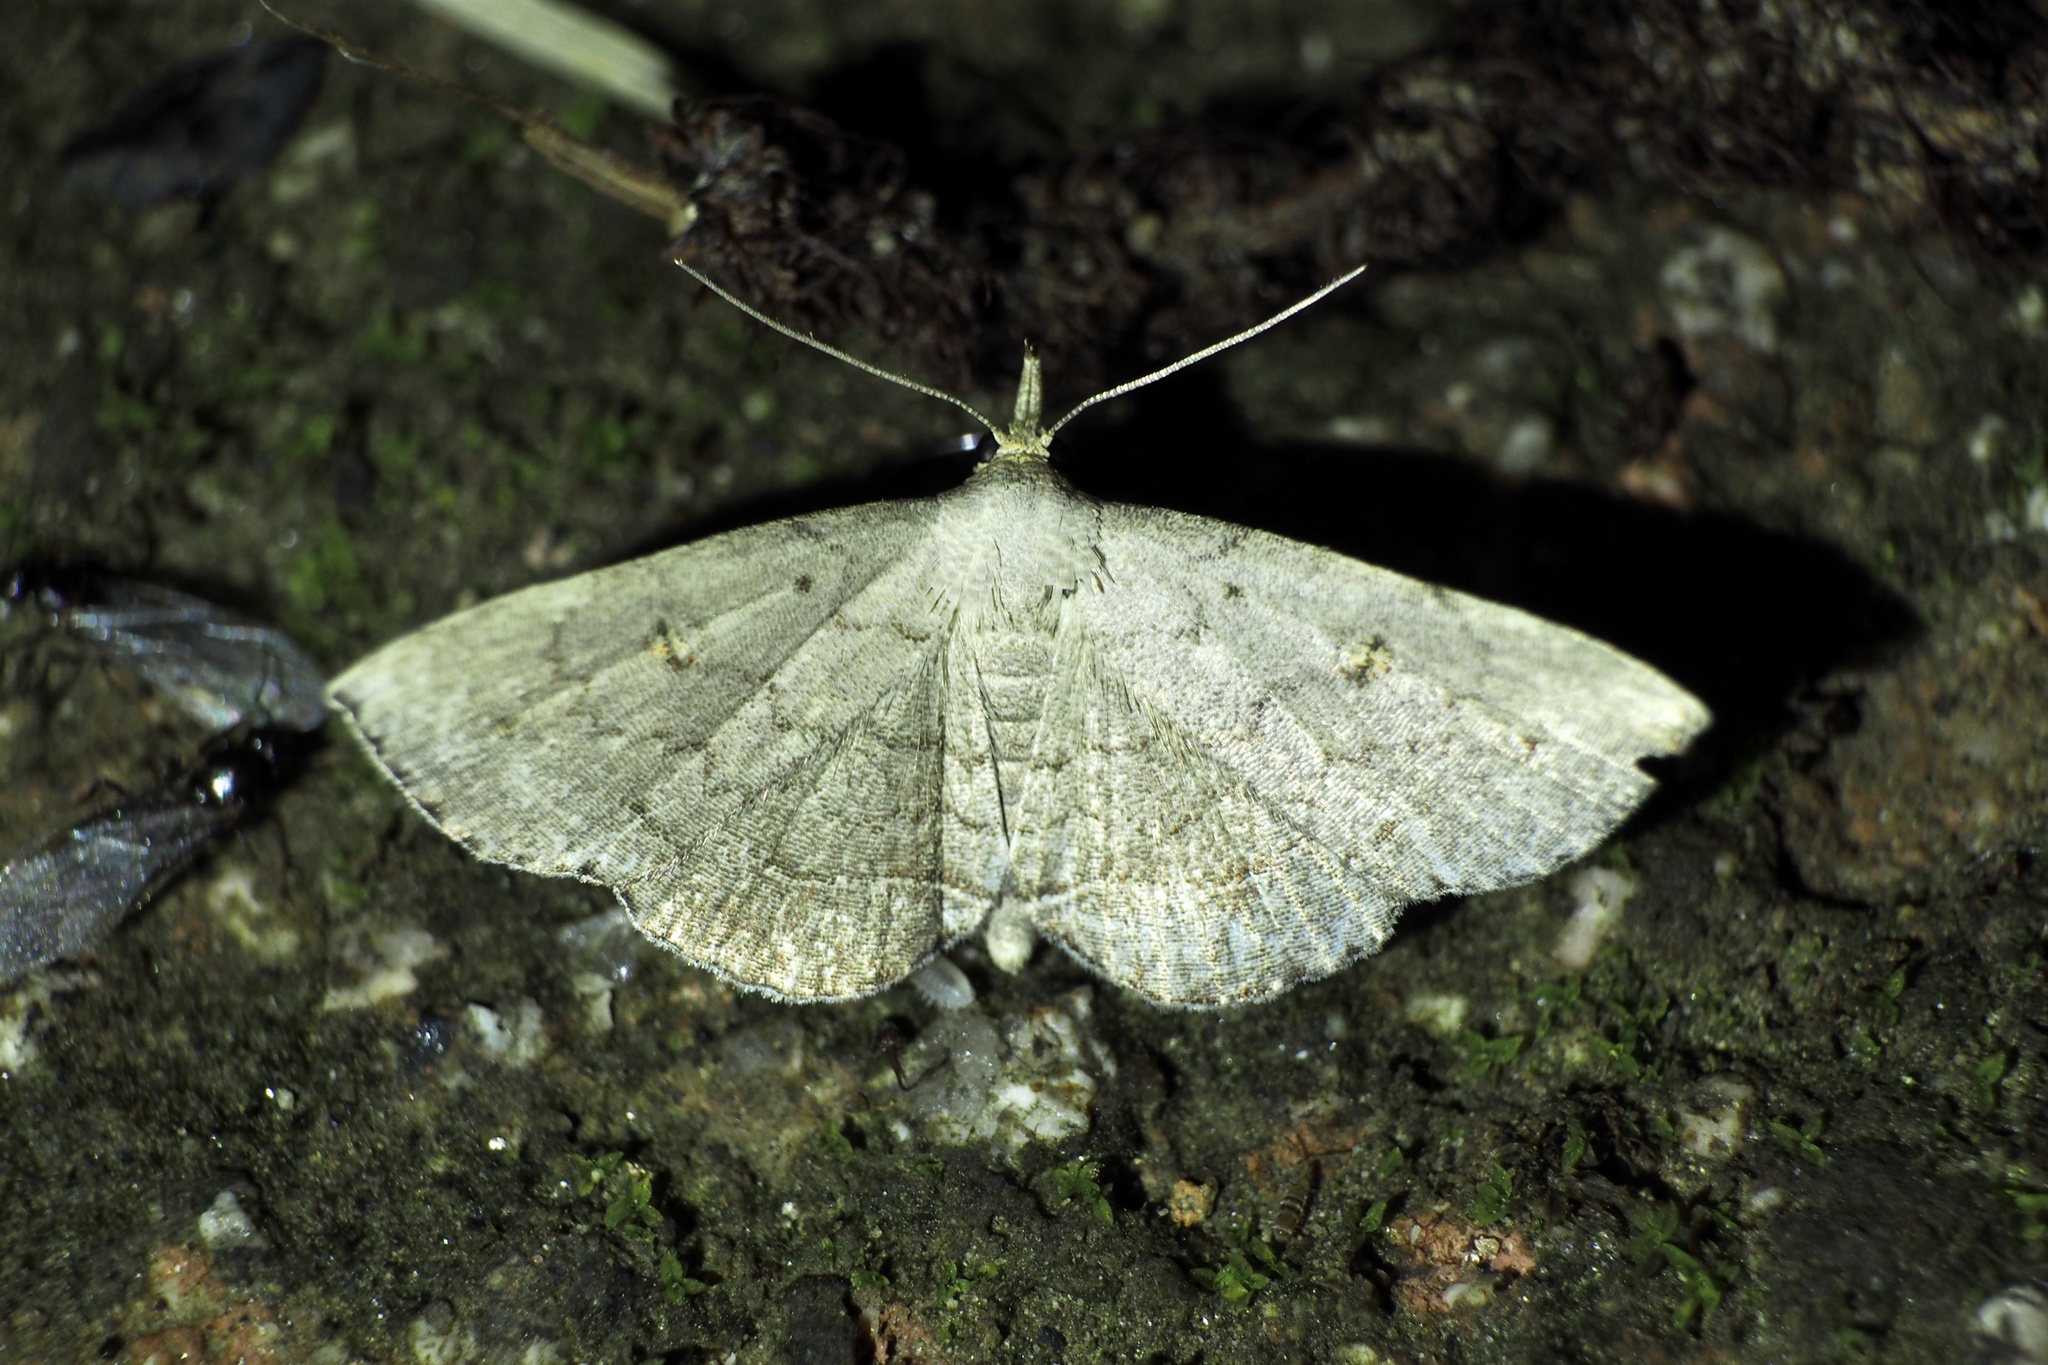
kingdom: Animalia
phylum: Arthropoda
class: Insecta
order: Lepidoptera
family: Erebidae
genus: Herminia
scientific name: Herminia fentoni
